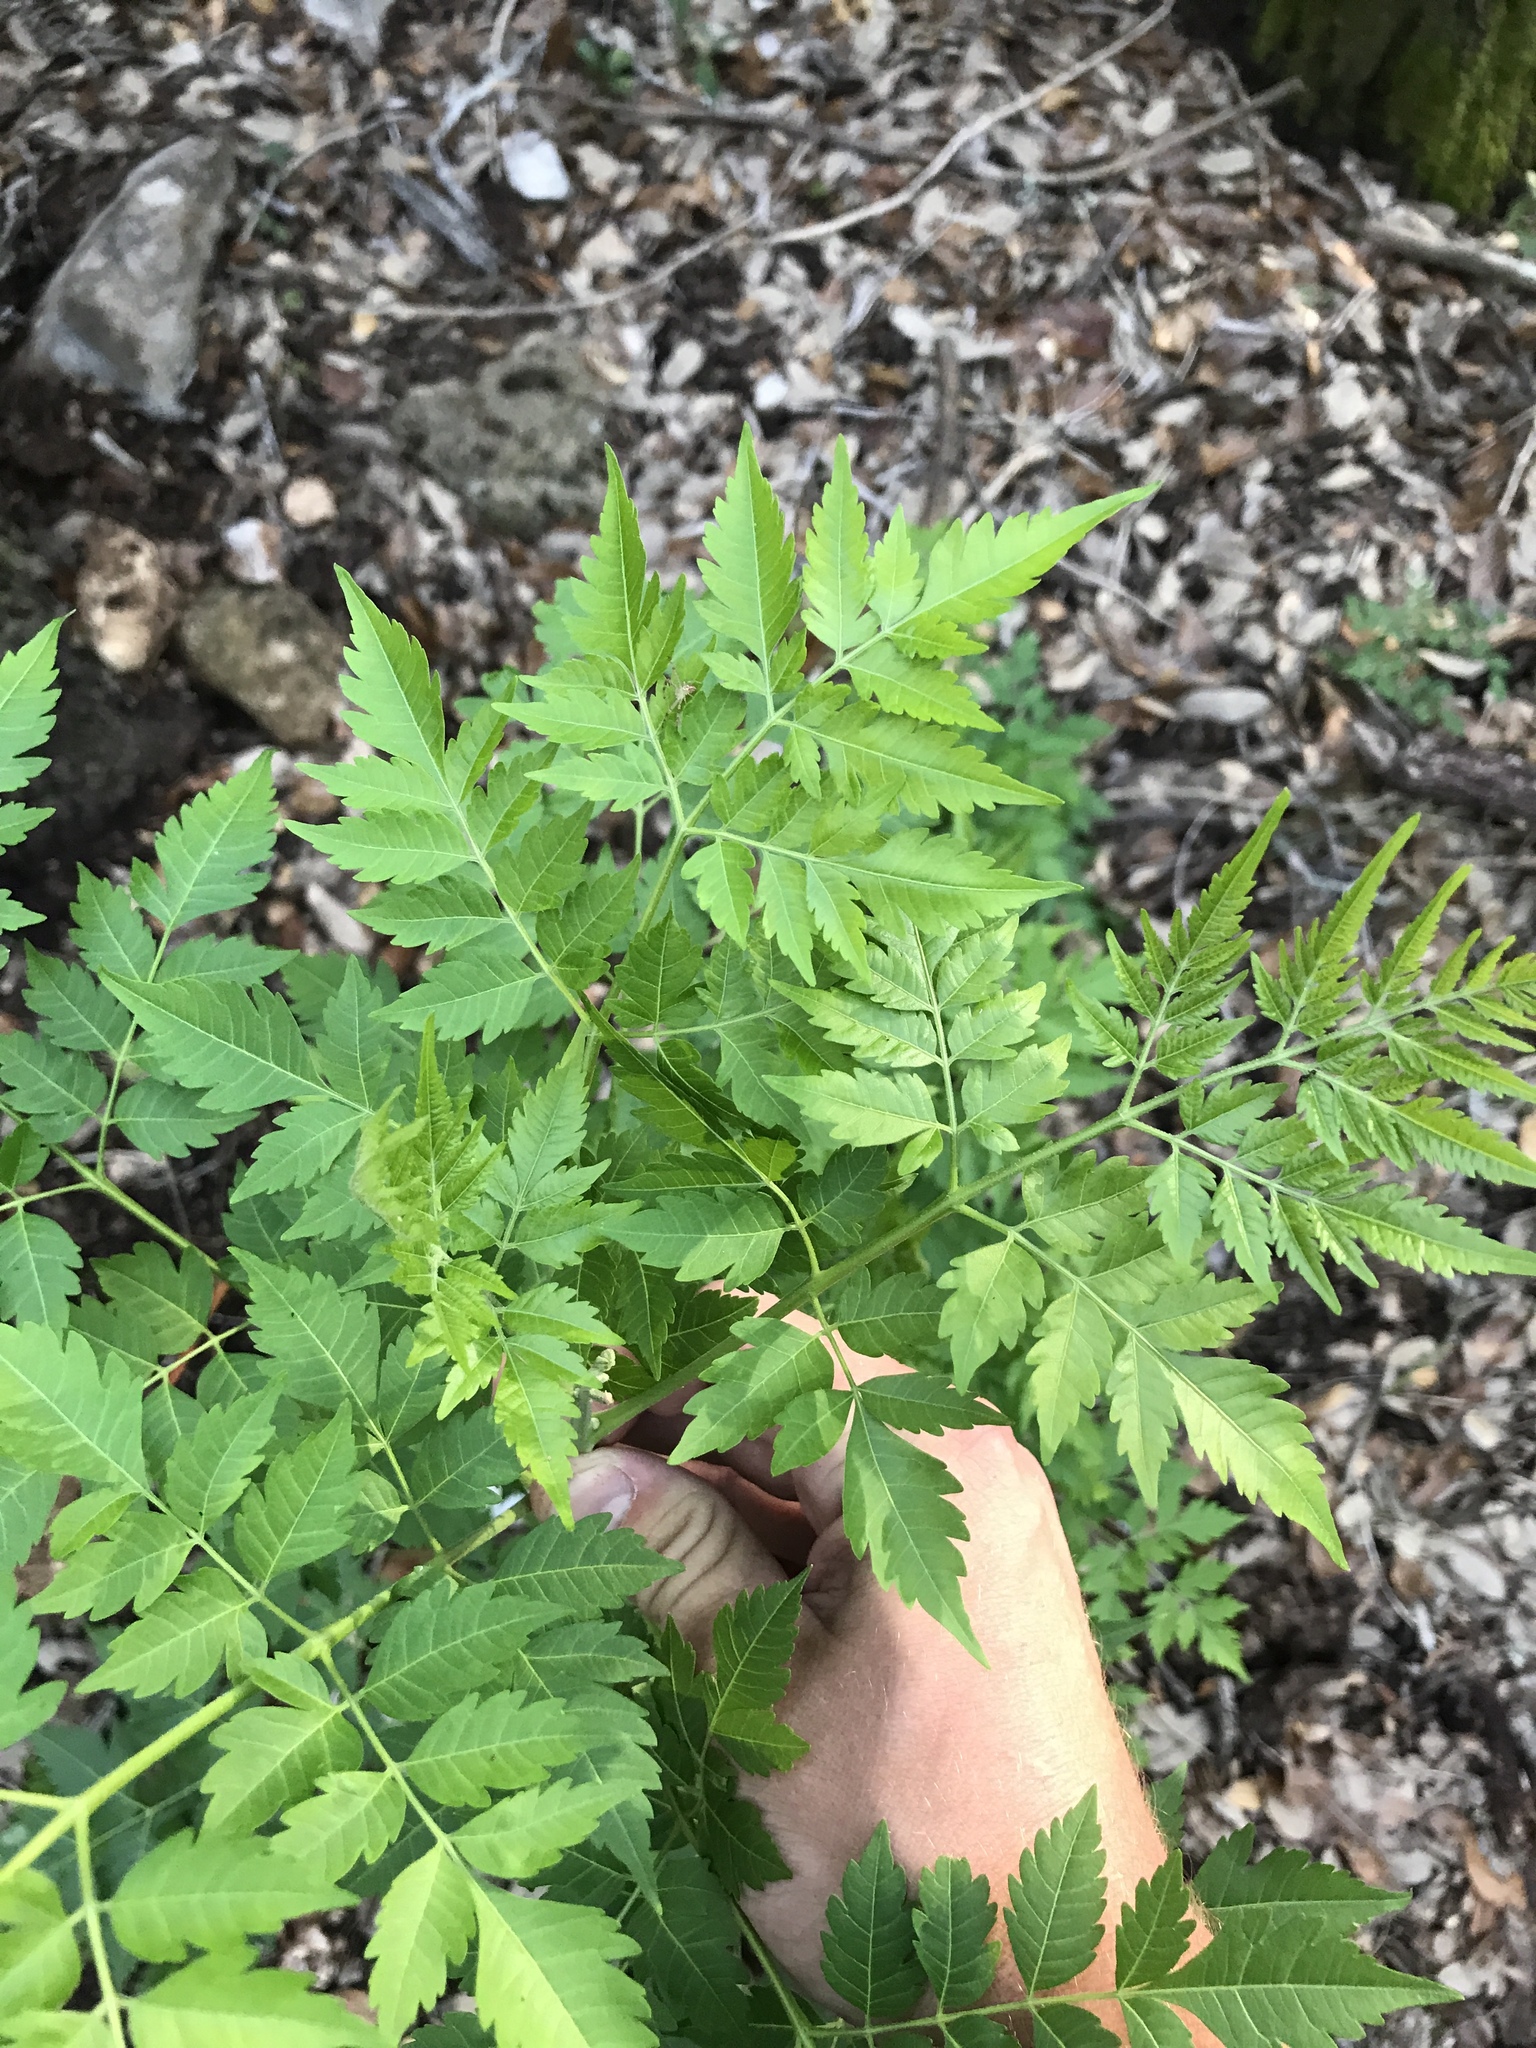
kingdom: Plantae
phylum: Tracheophyta
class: Magnoliopsida
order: Sapindales
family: Meliaceae
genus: Melia
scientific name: Melia azedarach
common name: Chinaberrytree
